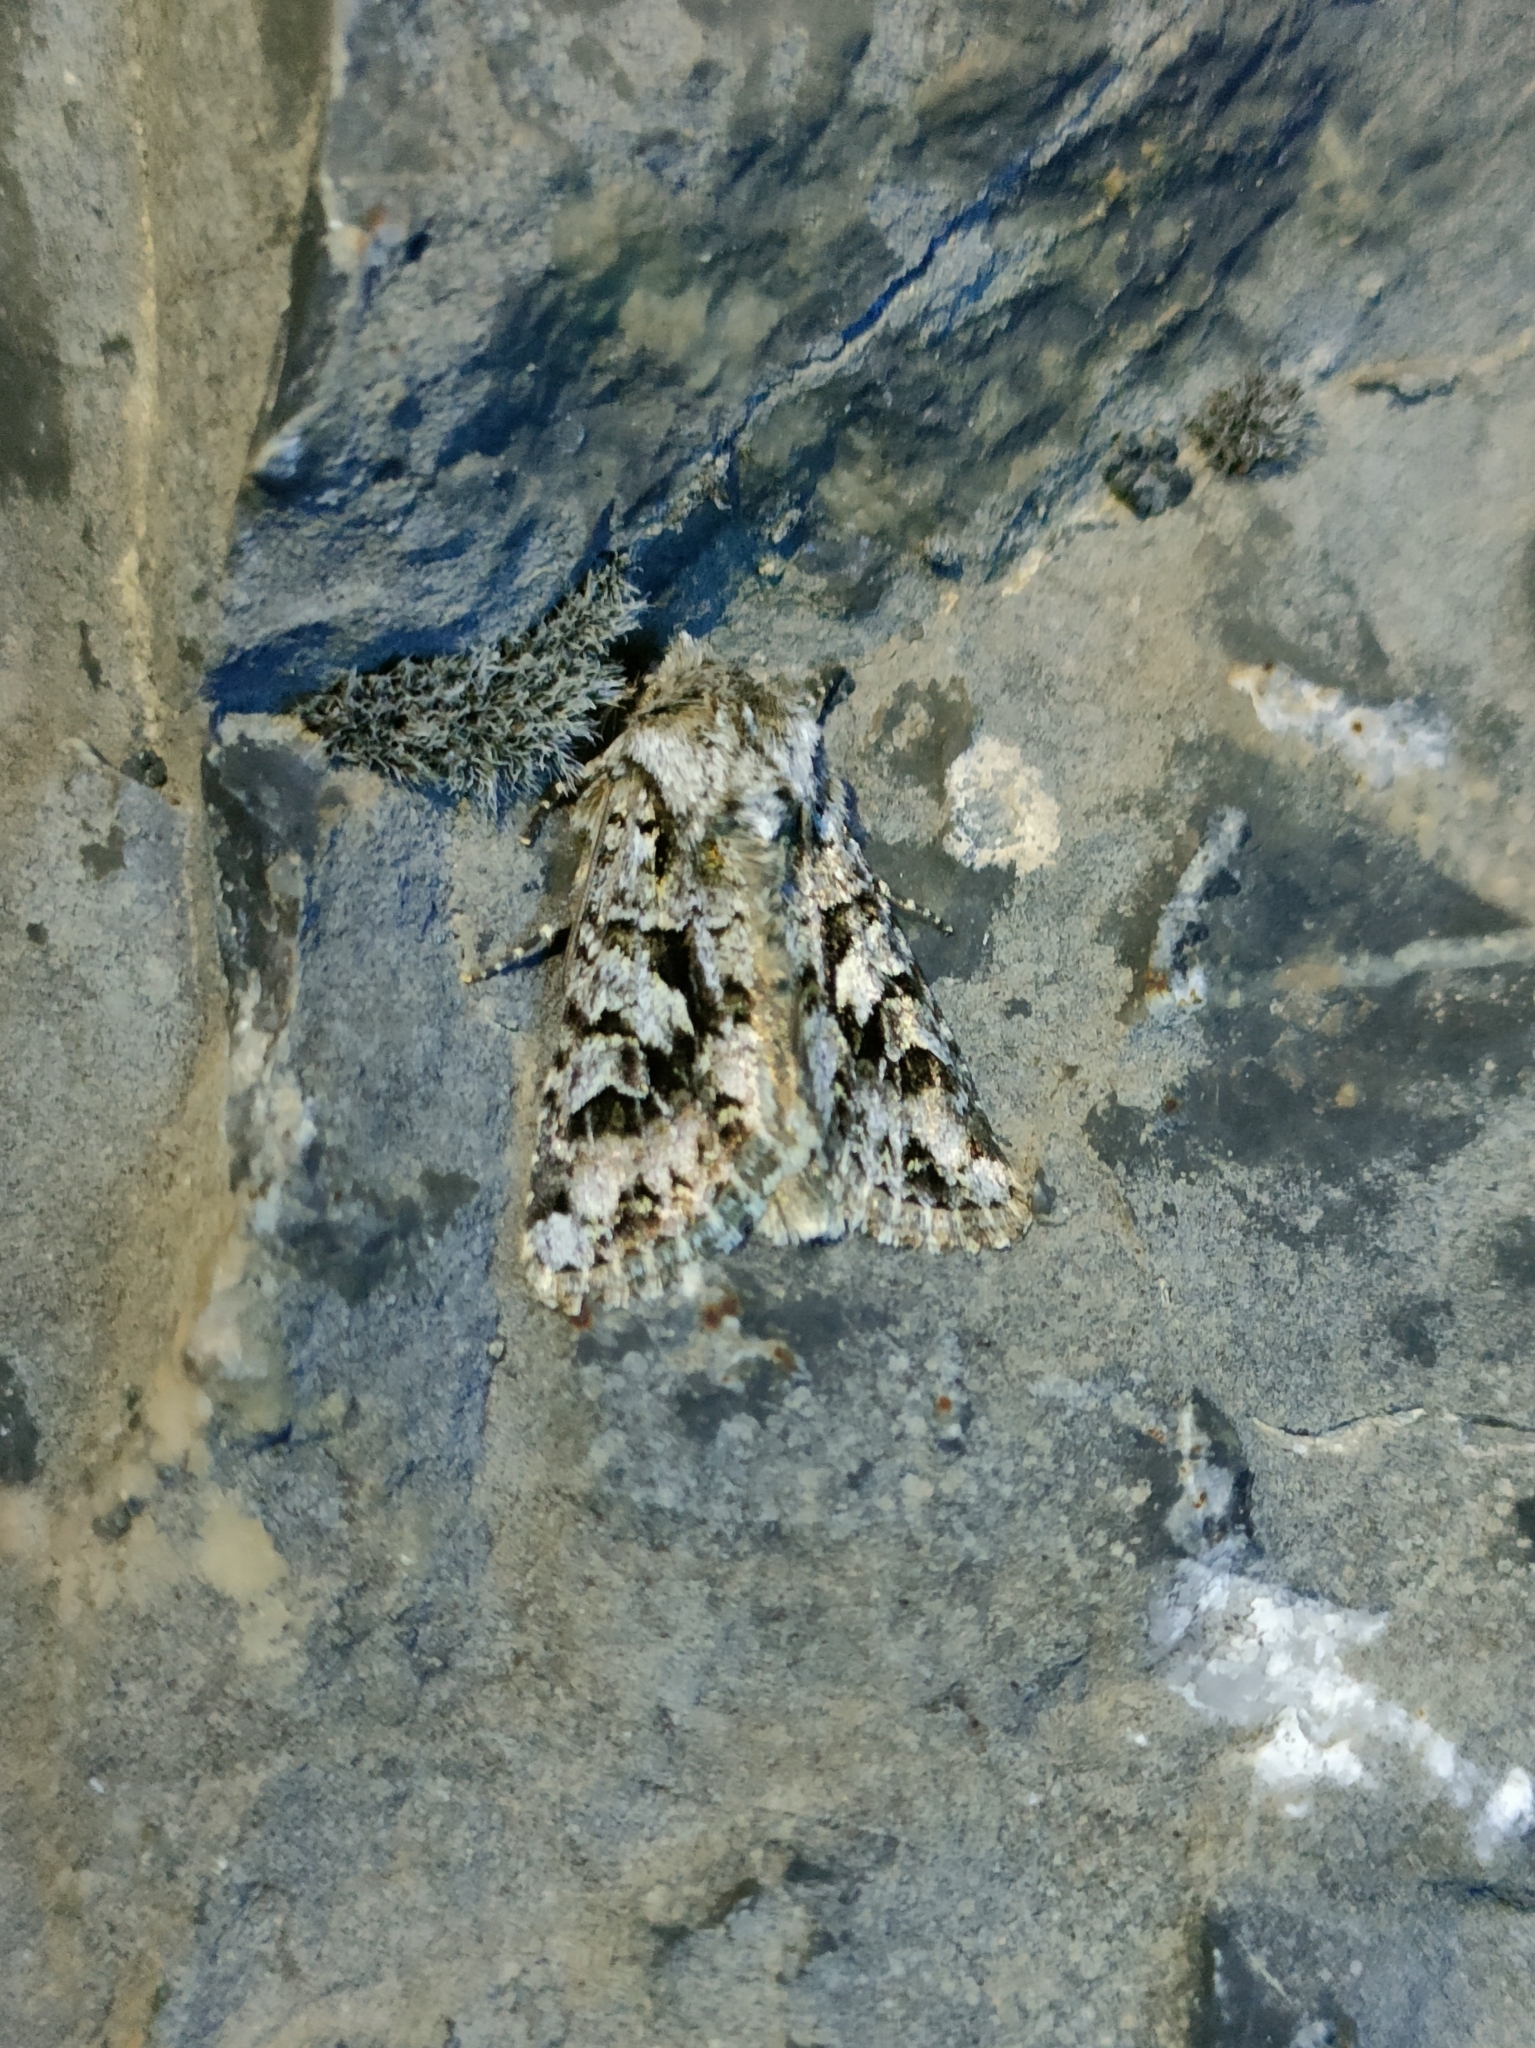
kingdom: Animalia
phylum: Arthropoda
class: Insecta
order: Lepidoptera
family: Noctuidae
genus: Hada
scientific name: Hada plebeja
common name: Shears
